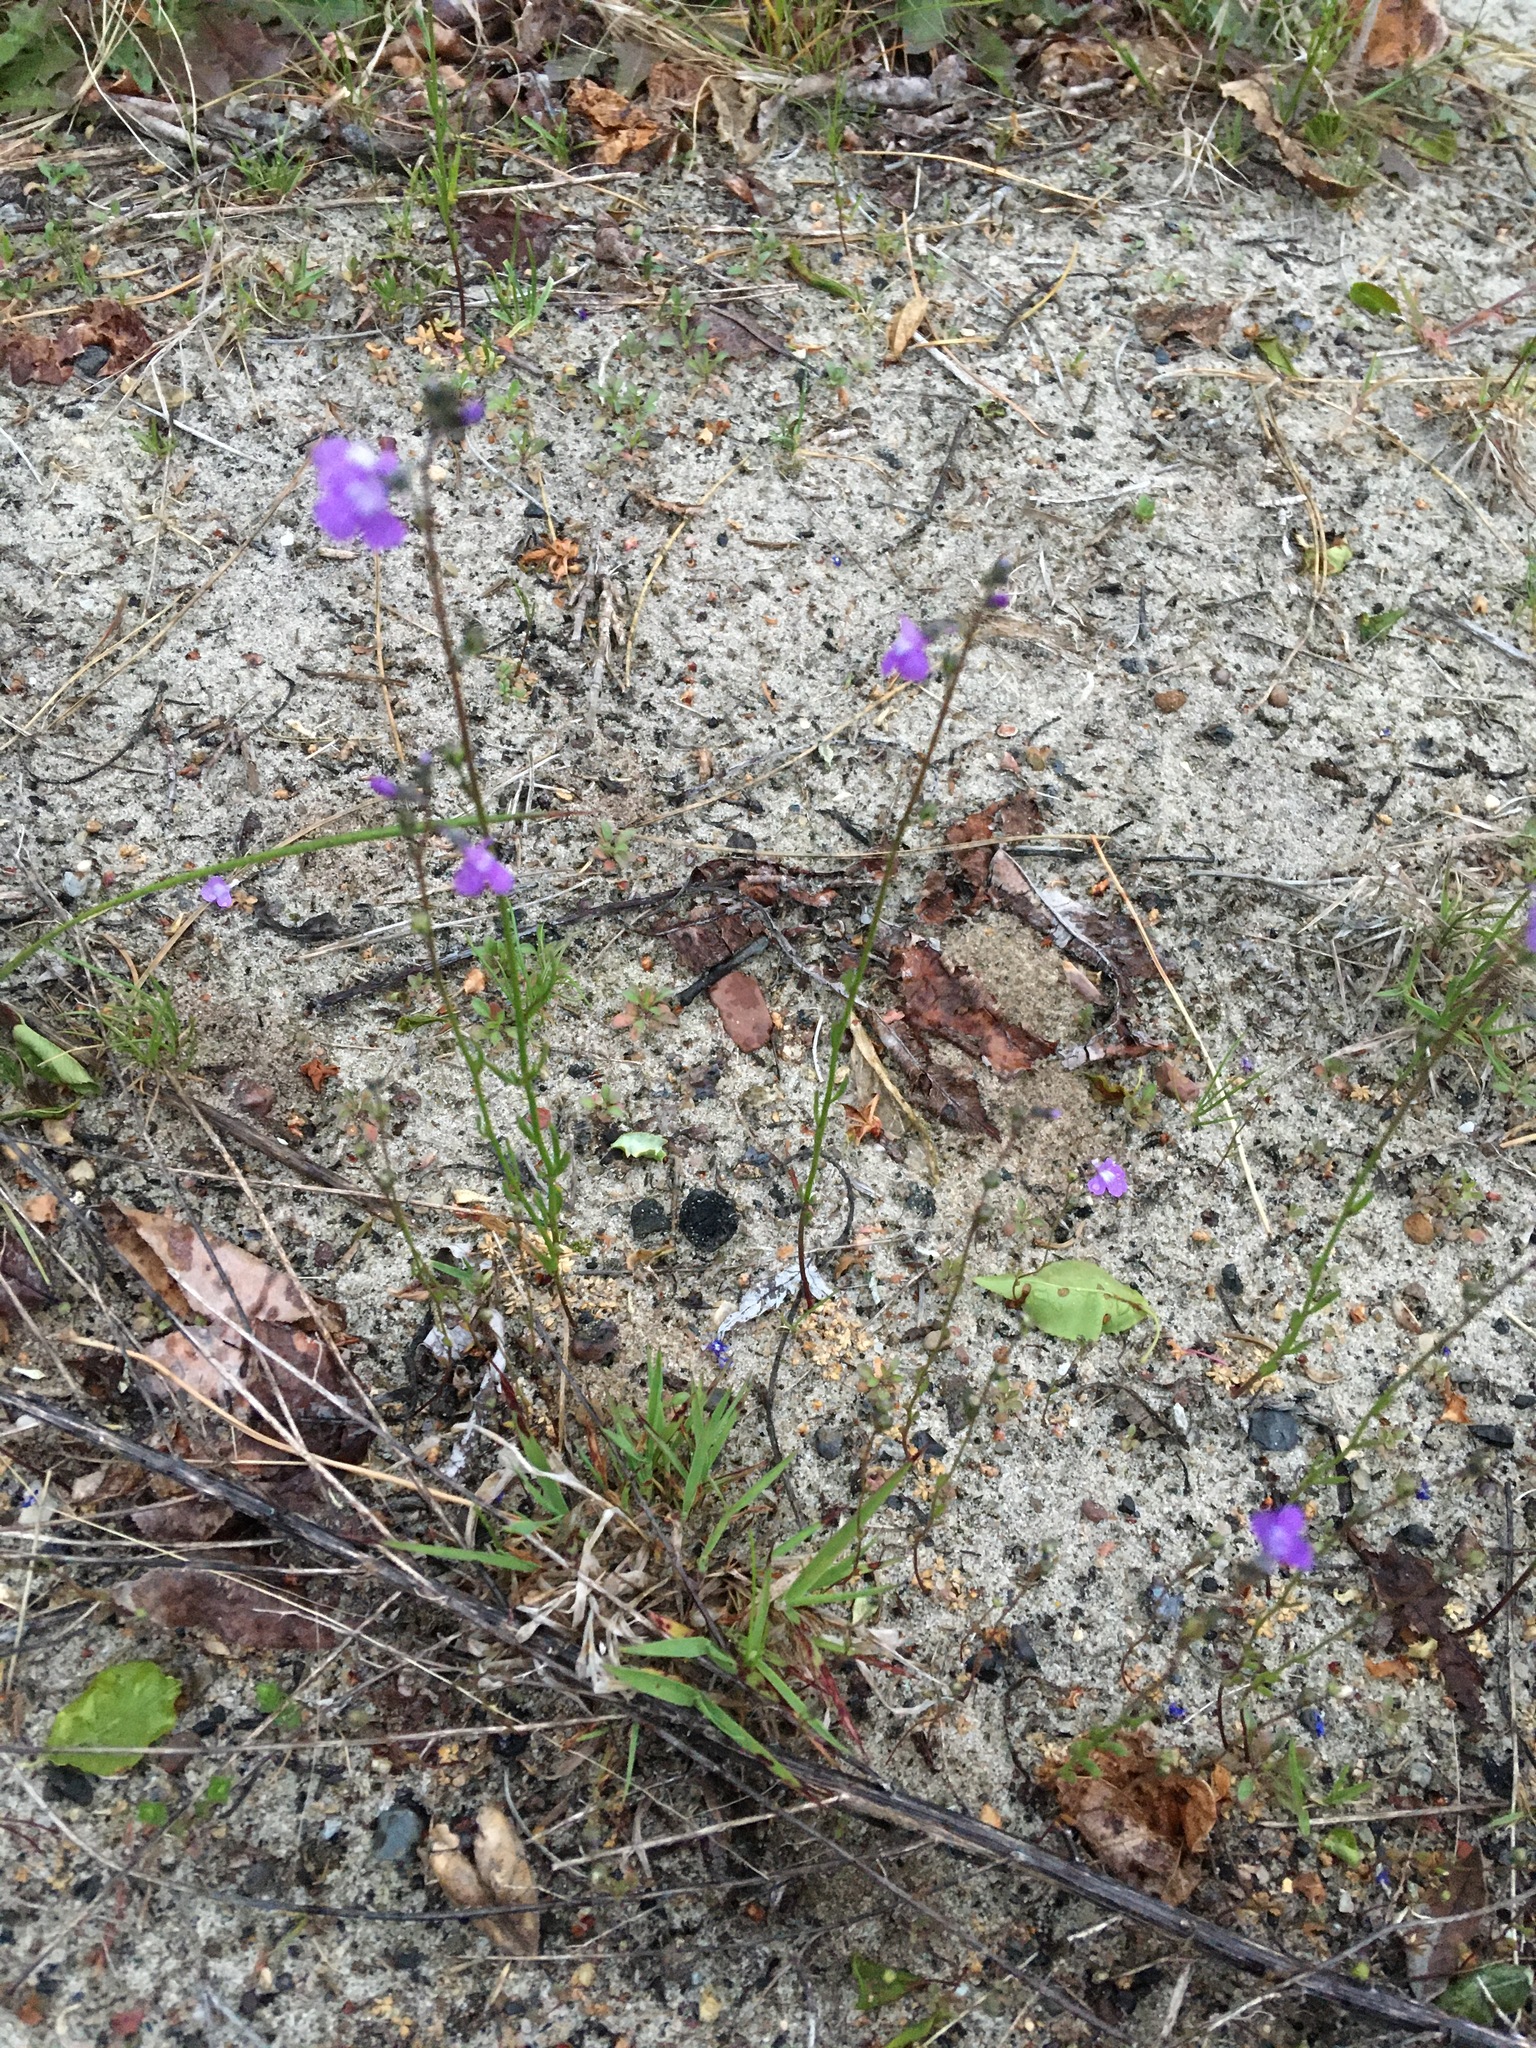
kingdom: Plantae
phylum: Tracheophyta
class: Magnoliopsida
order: Lamiales
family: Plantaginaceae
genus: Nuttallanthus
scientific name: Nuttallanthus canadensis
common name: Blue toadflax
